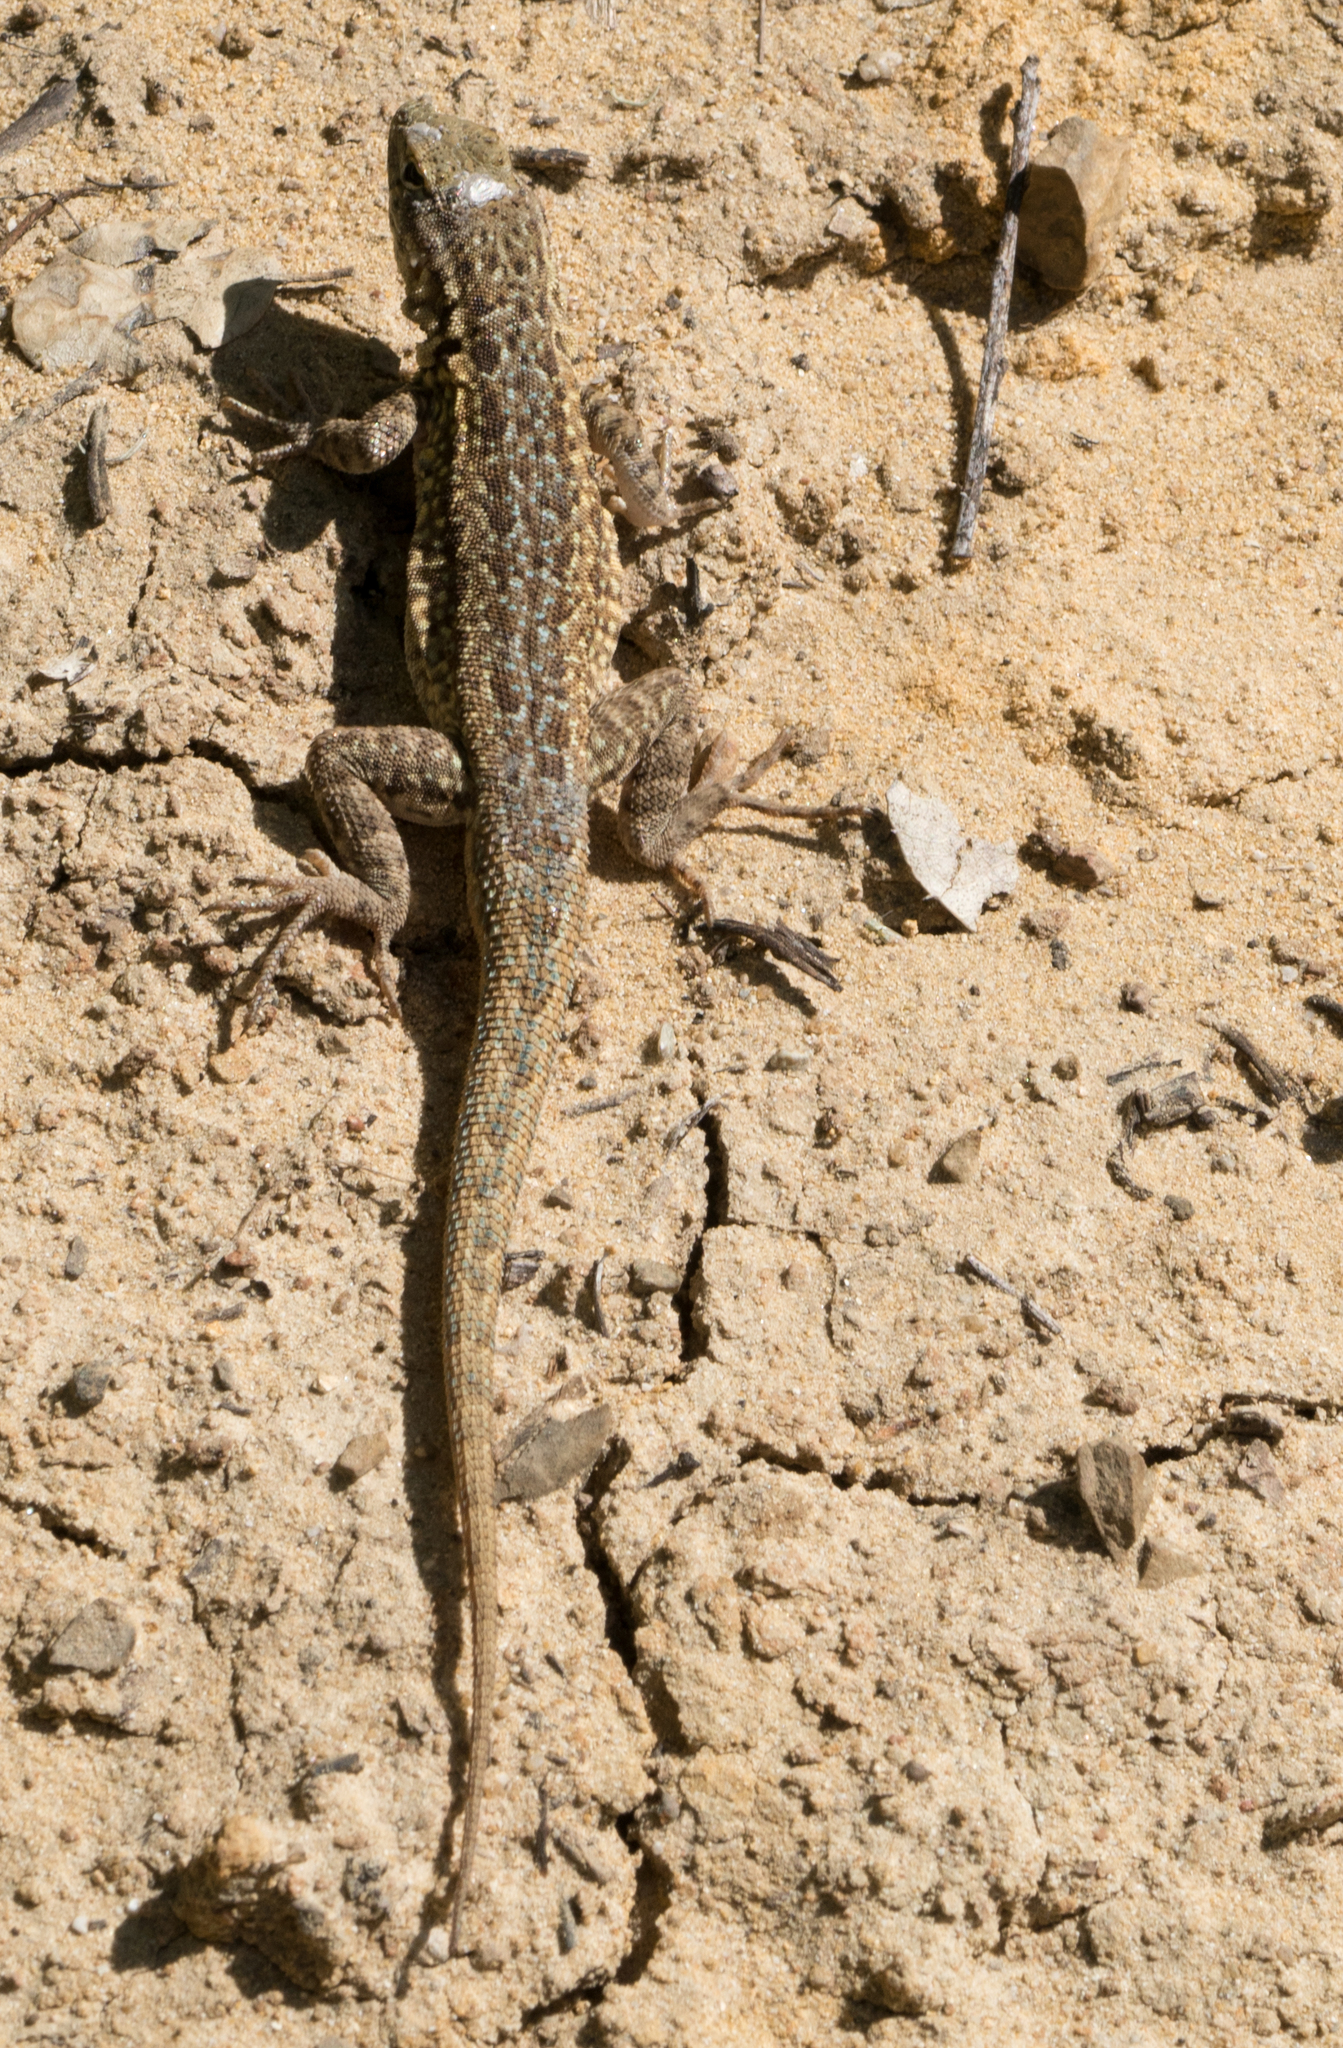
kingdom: Animalia
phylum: Chordata
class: Squamata
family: Phrynosomatidae
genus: Uta
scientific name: Uta stansburiana
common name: Side-blotched lizard
